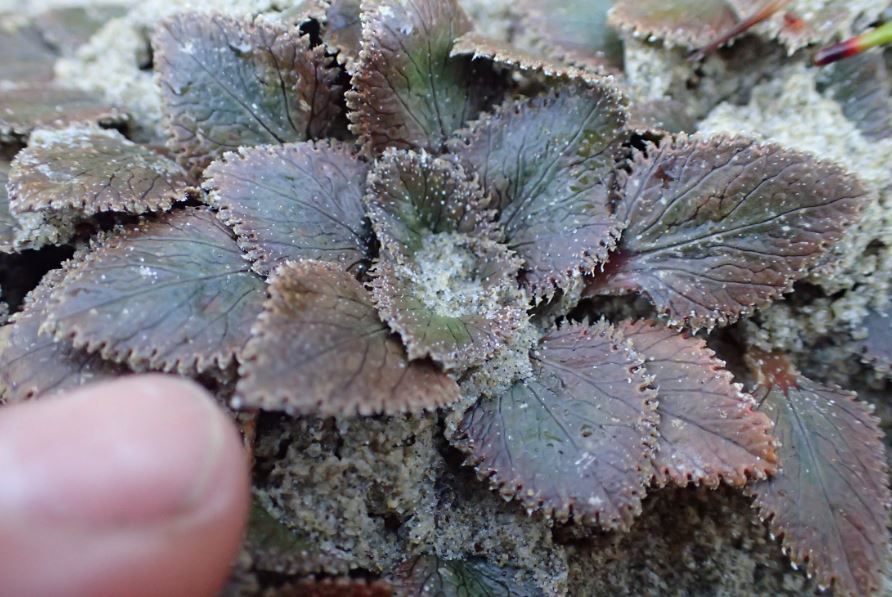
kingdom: Plantae
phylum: Tracheophyta
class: Magnoliopsida
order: Gunnerales
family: Gunneraceae
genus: Gunnera
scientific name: Gunnera hamiltonii
